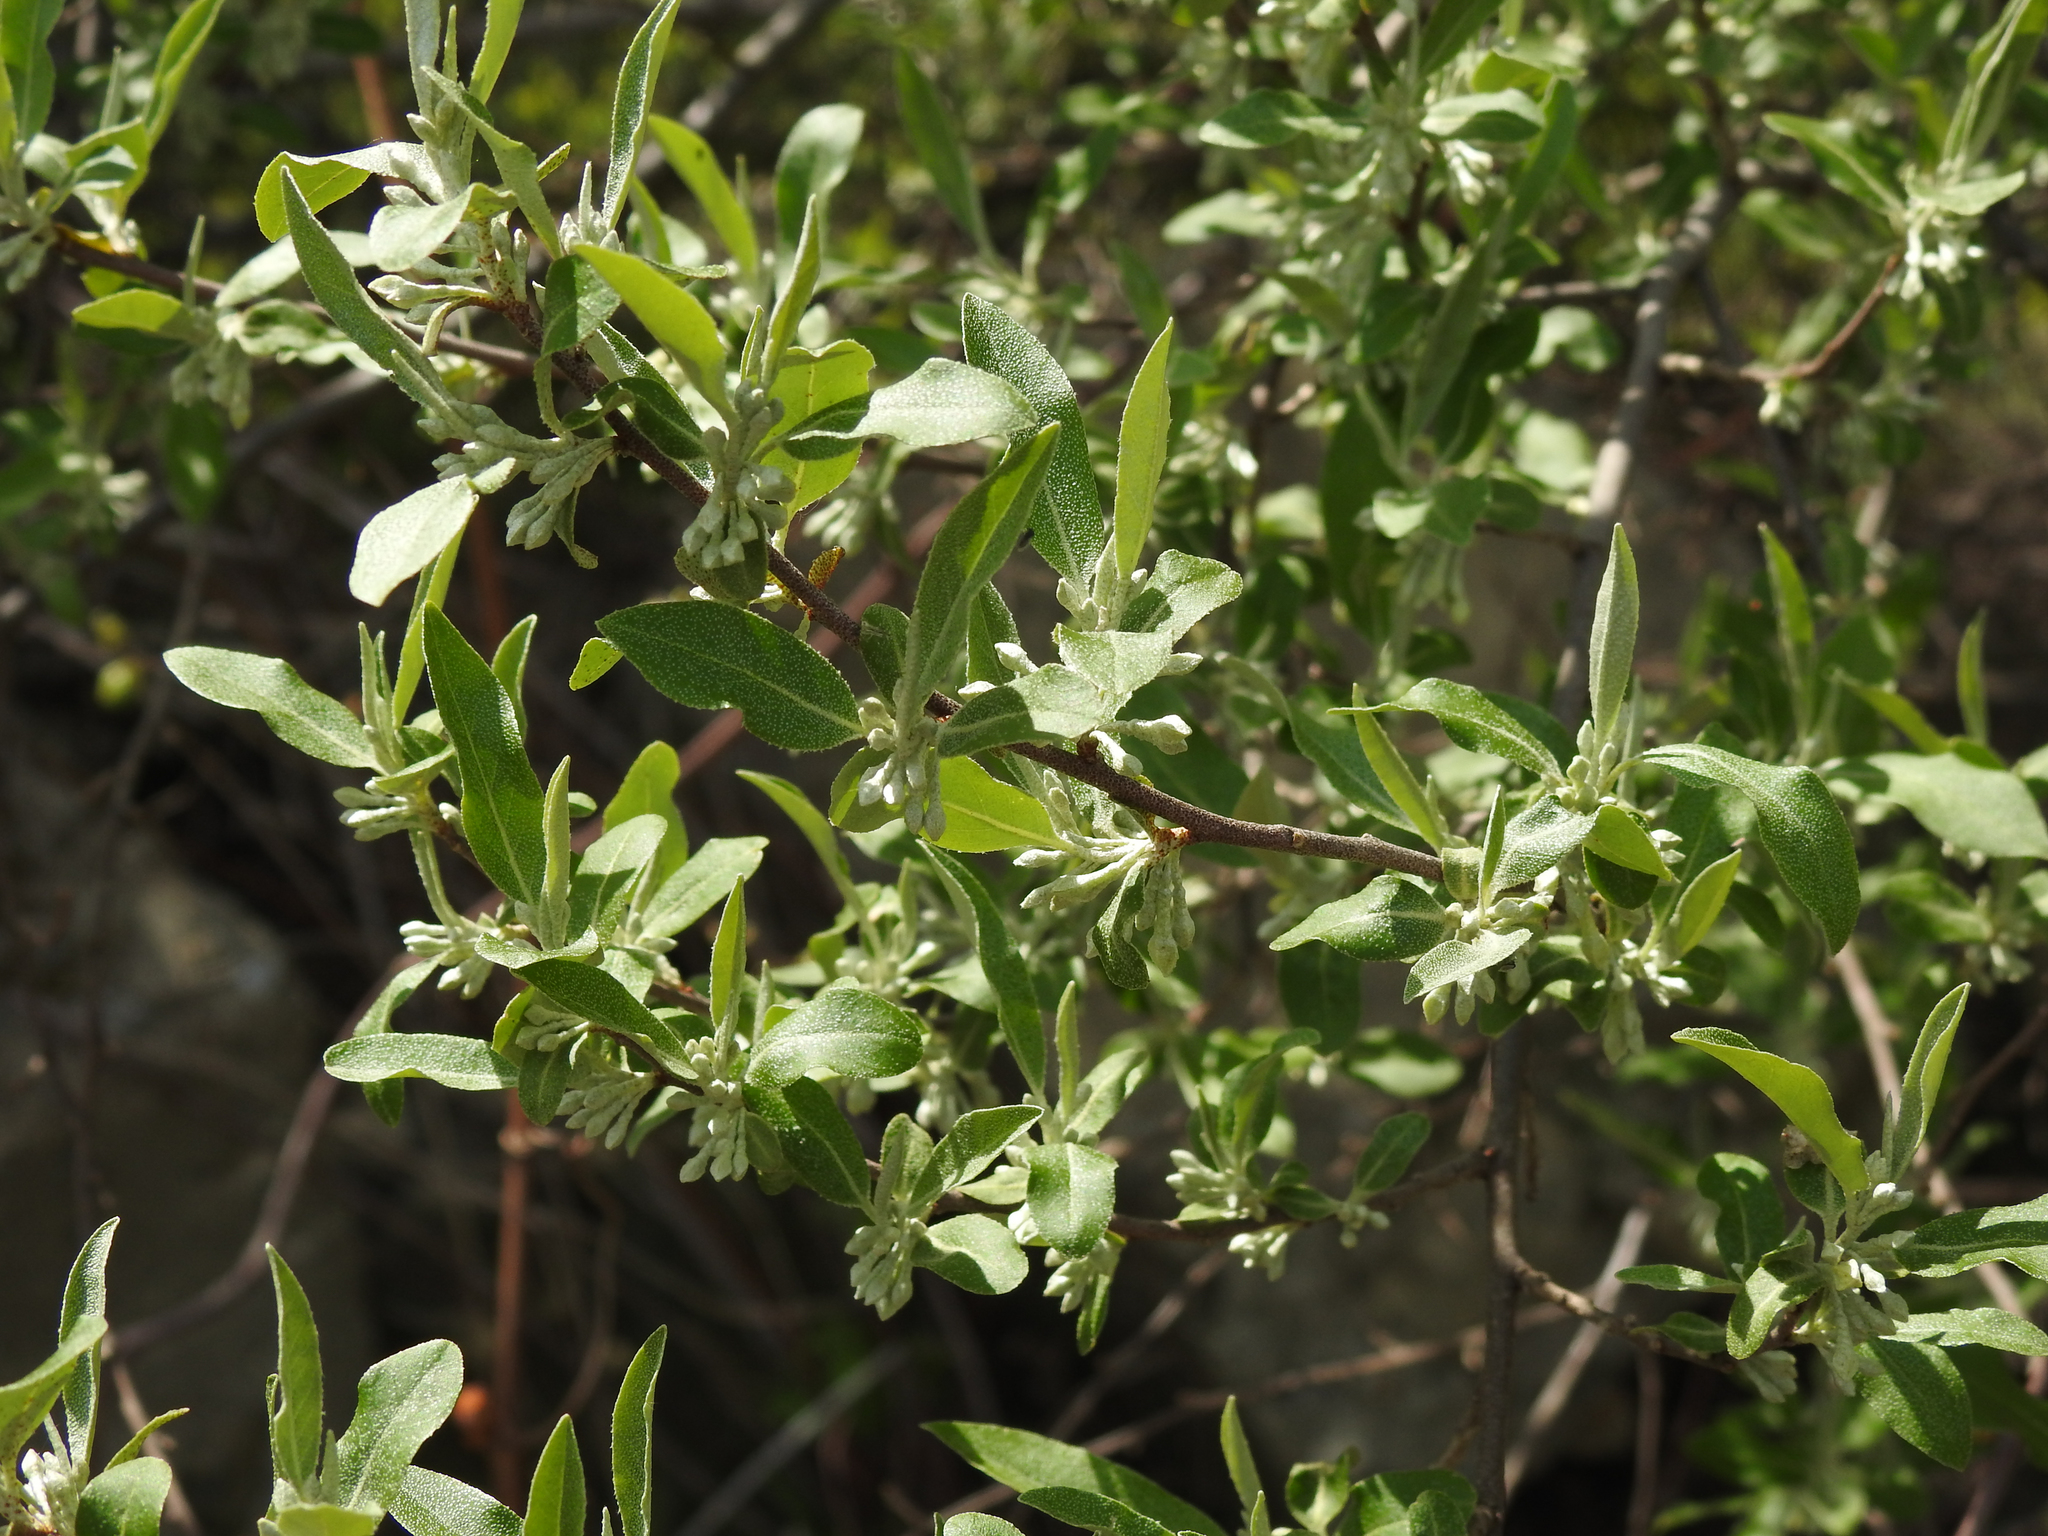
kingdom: Plantae
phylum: Tracheophyta
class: Magnoliopsida
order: Rosales
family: Elaeagnaceae
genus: Elaeagnus
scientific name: Elaeagnus umbellata
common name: Autumn olive
